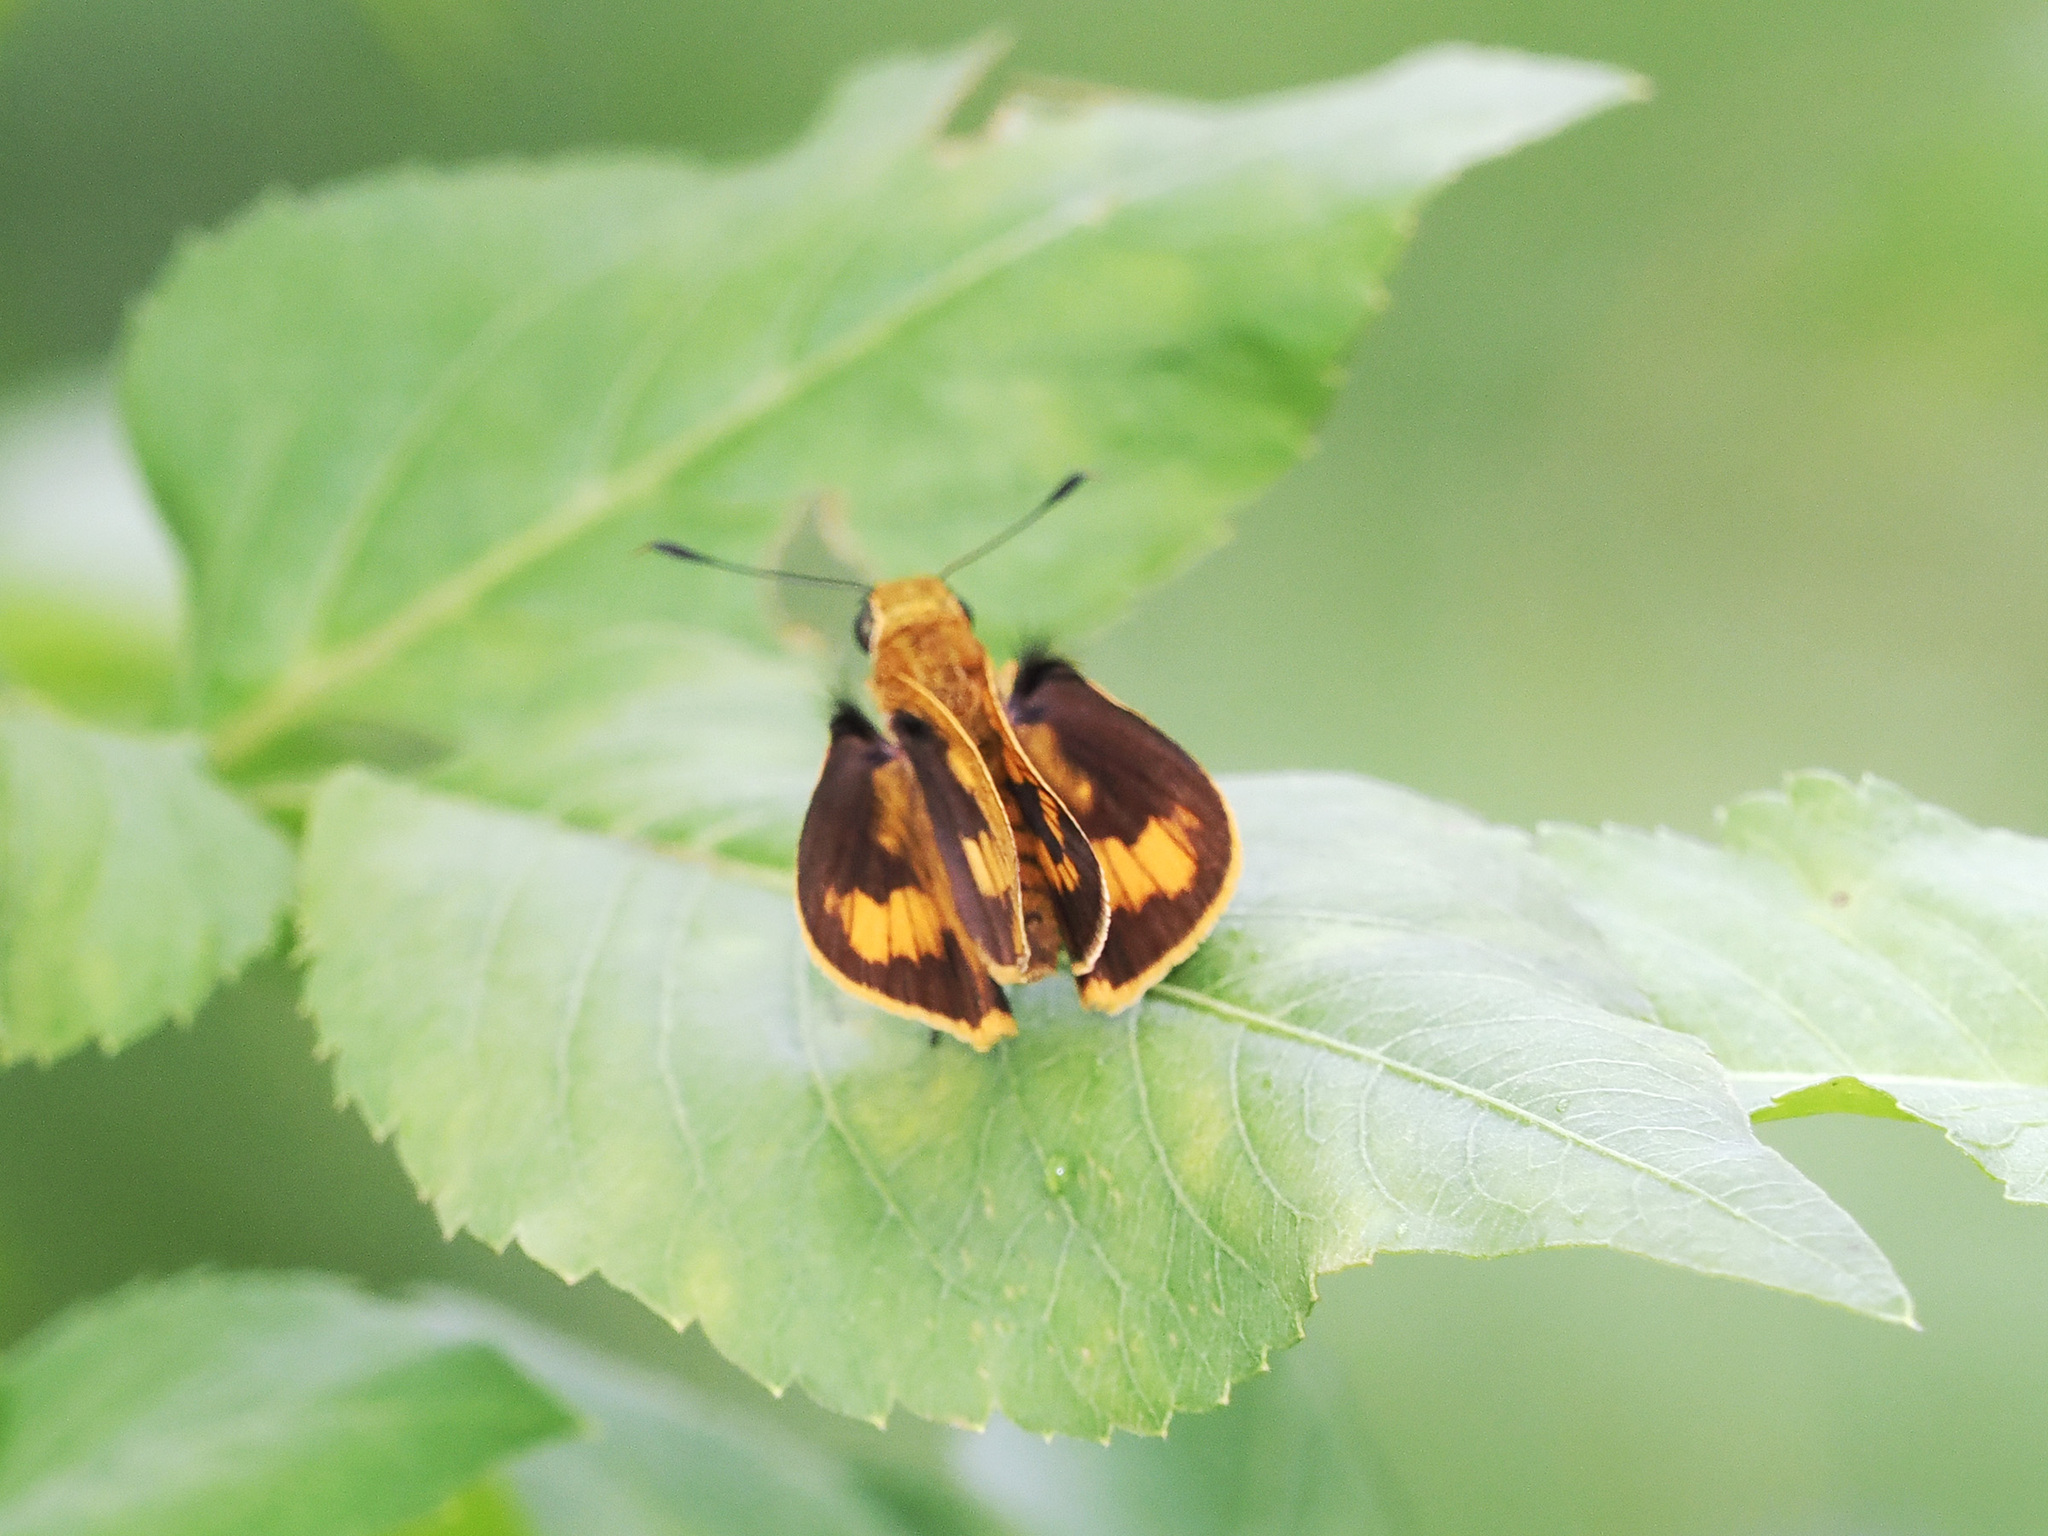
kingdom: Animalia
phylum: Arthropoda
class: Insecta
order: Lepidoptera
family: Hesperiidae
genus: Potanthus
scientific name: Potanthus omaha
